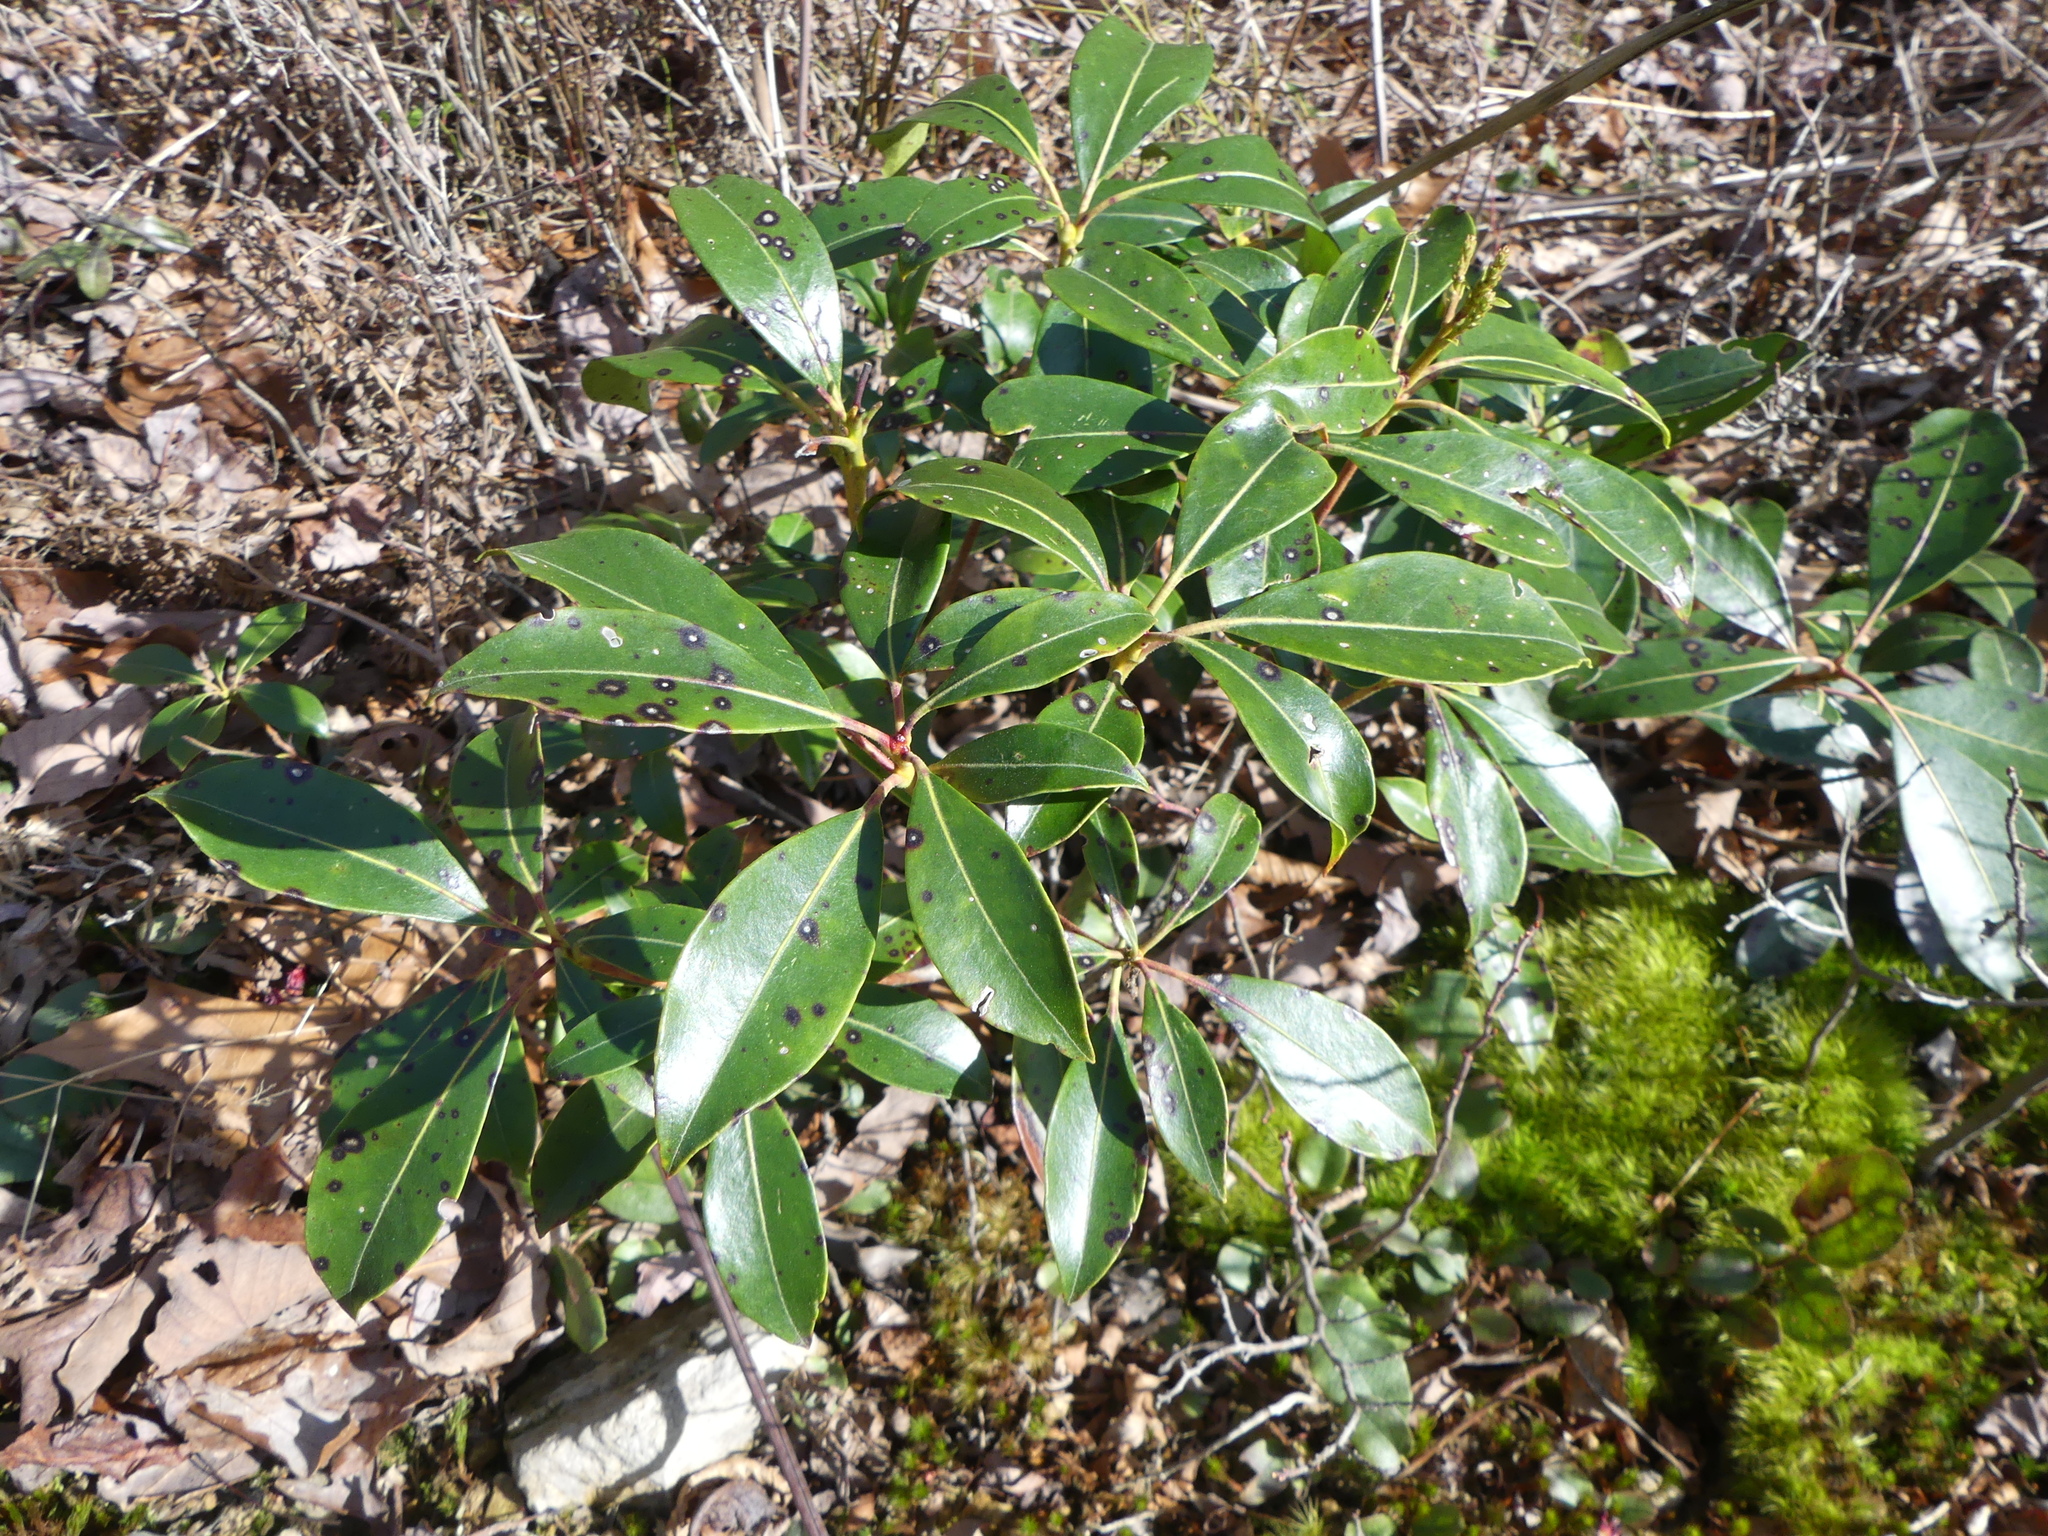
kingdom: Plantae
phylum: Tracheophyta
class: Magnoliopsida
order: Ericales
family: Ericaceae
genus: Kalmia
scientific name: Kalmia latifolia
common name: Mountain-laurel
